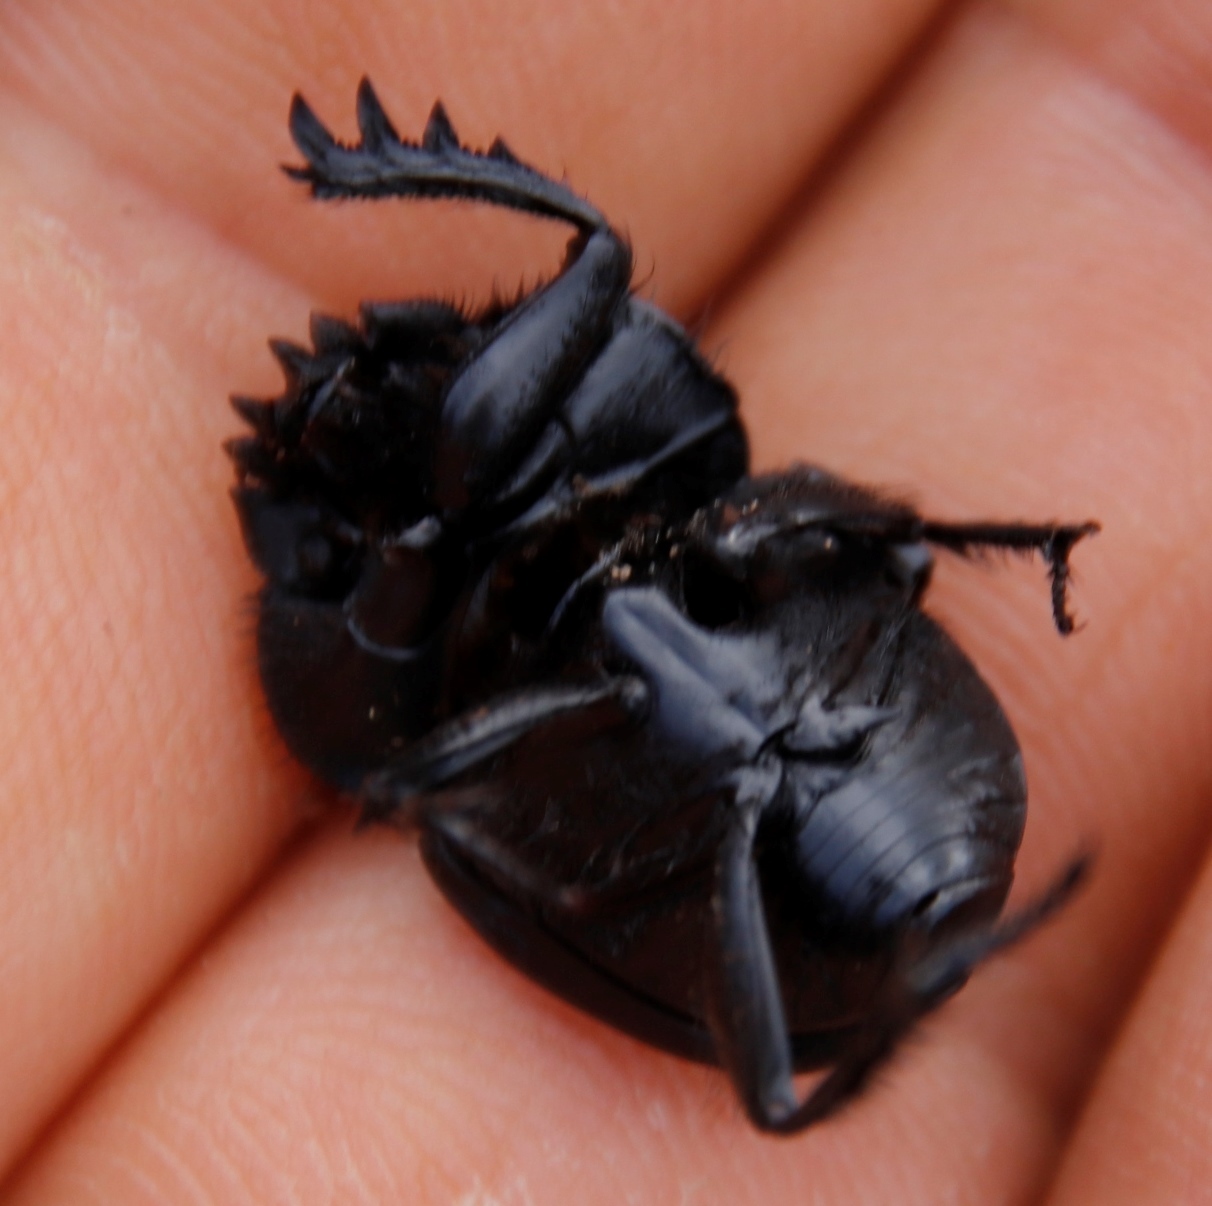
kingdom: Animalia
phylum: Arthropoda
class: Insecta
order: Coleoptera
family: Scarabaeidae
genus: Scarabaeus
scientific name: Scarabaeus convexus
